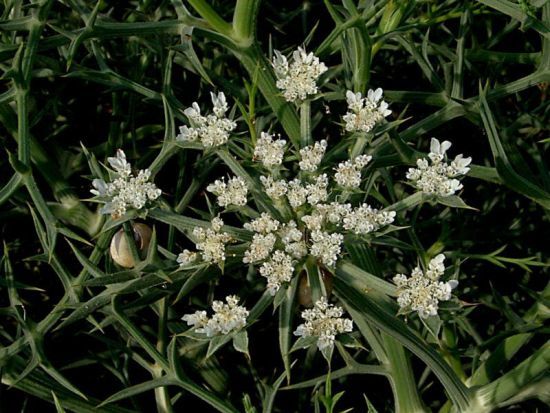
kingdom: Plantae
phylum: Tracheophyta
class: Magnoliopsida
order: Apiales
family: Apiaceae
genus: Echinophora
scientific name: Echinophora spinosa
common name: Prickly samphire
